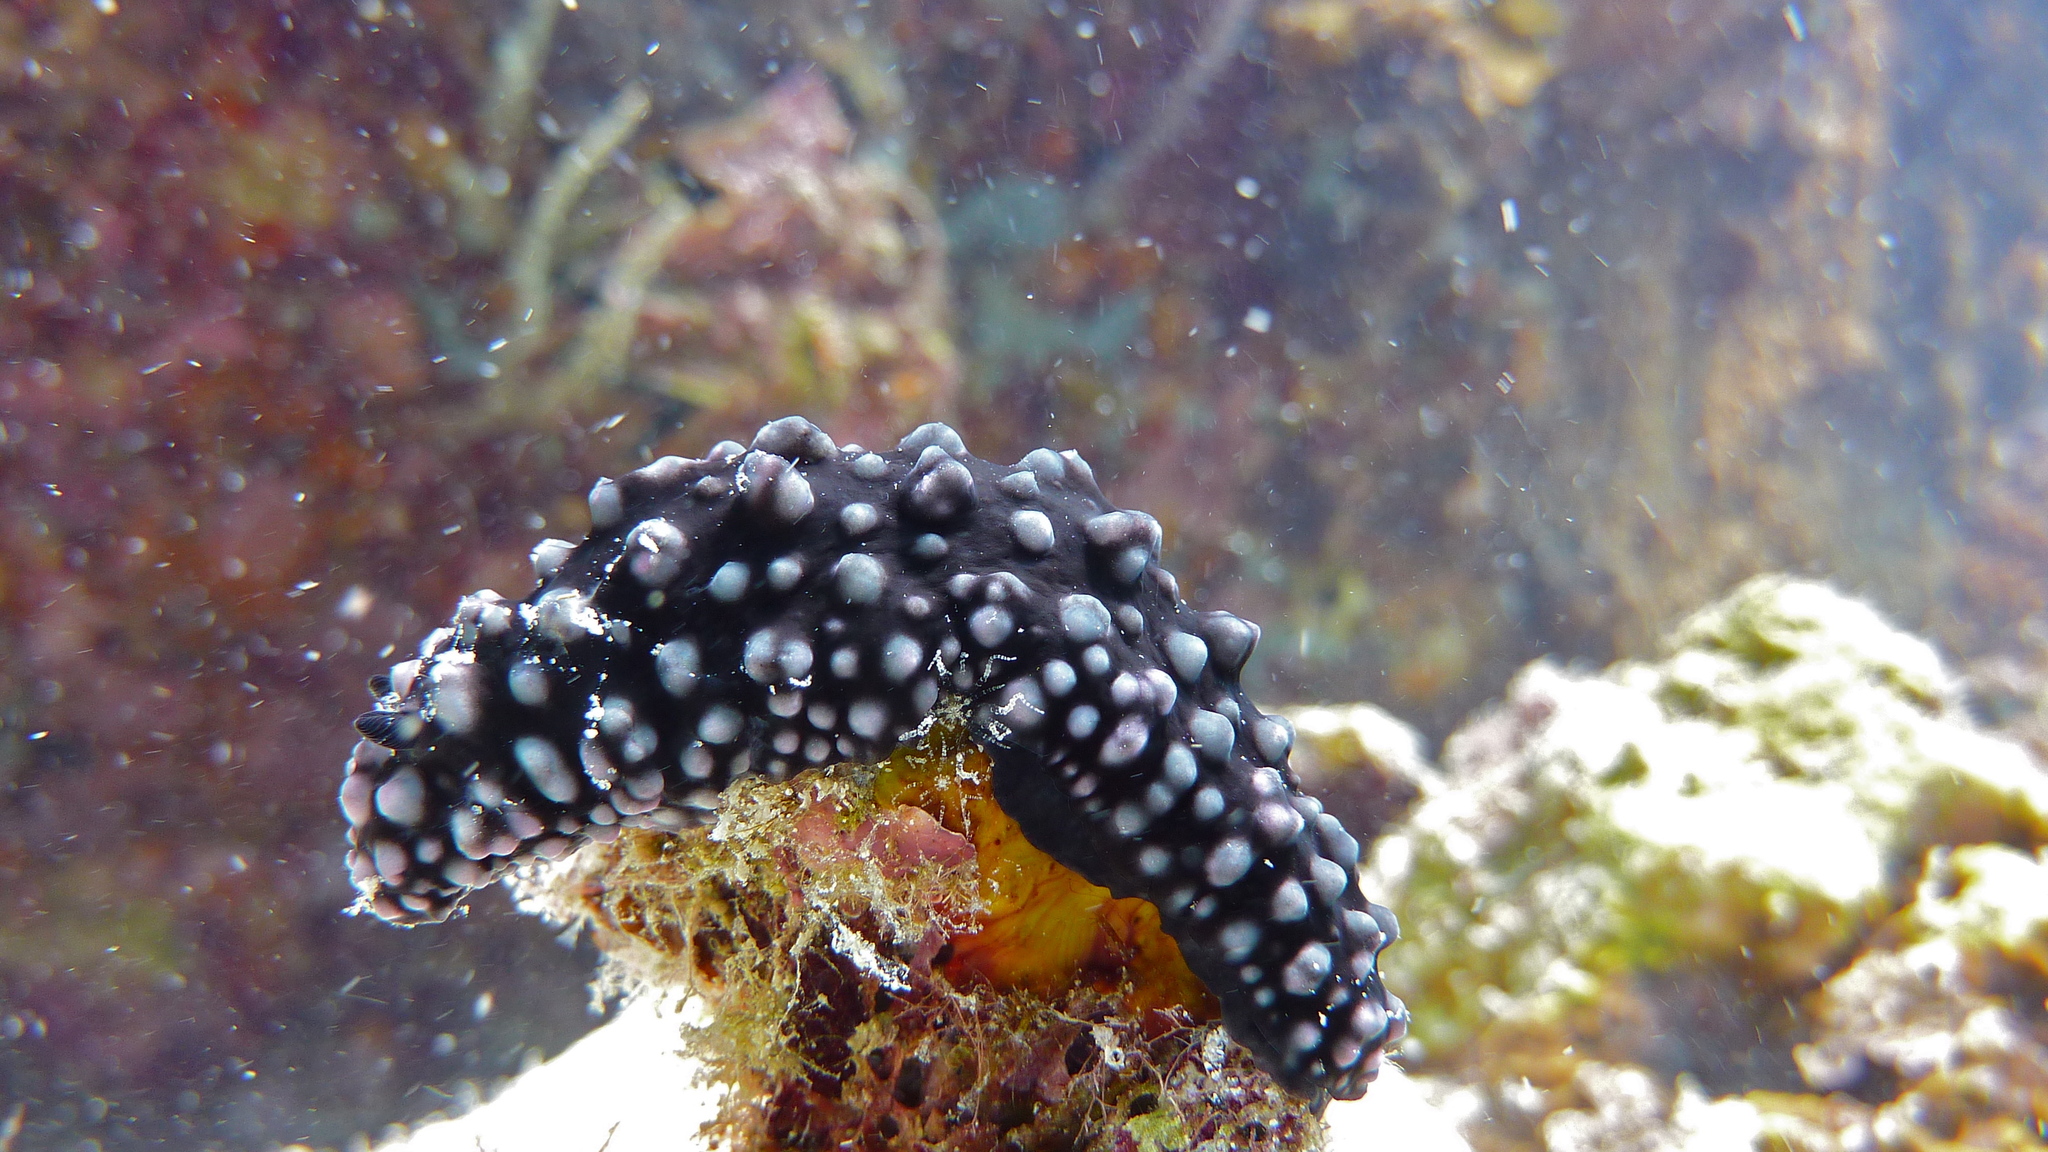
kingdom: Animalia
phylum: Mollusca
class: Gastropoda
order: Nudibranchia
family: Phyllidiidae
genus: Phyllidiella
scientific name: Phyllidiella nigra
